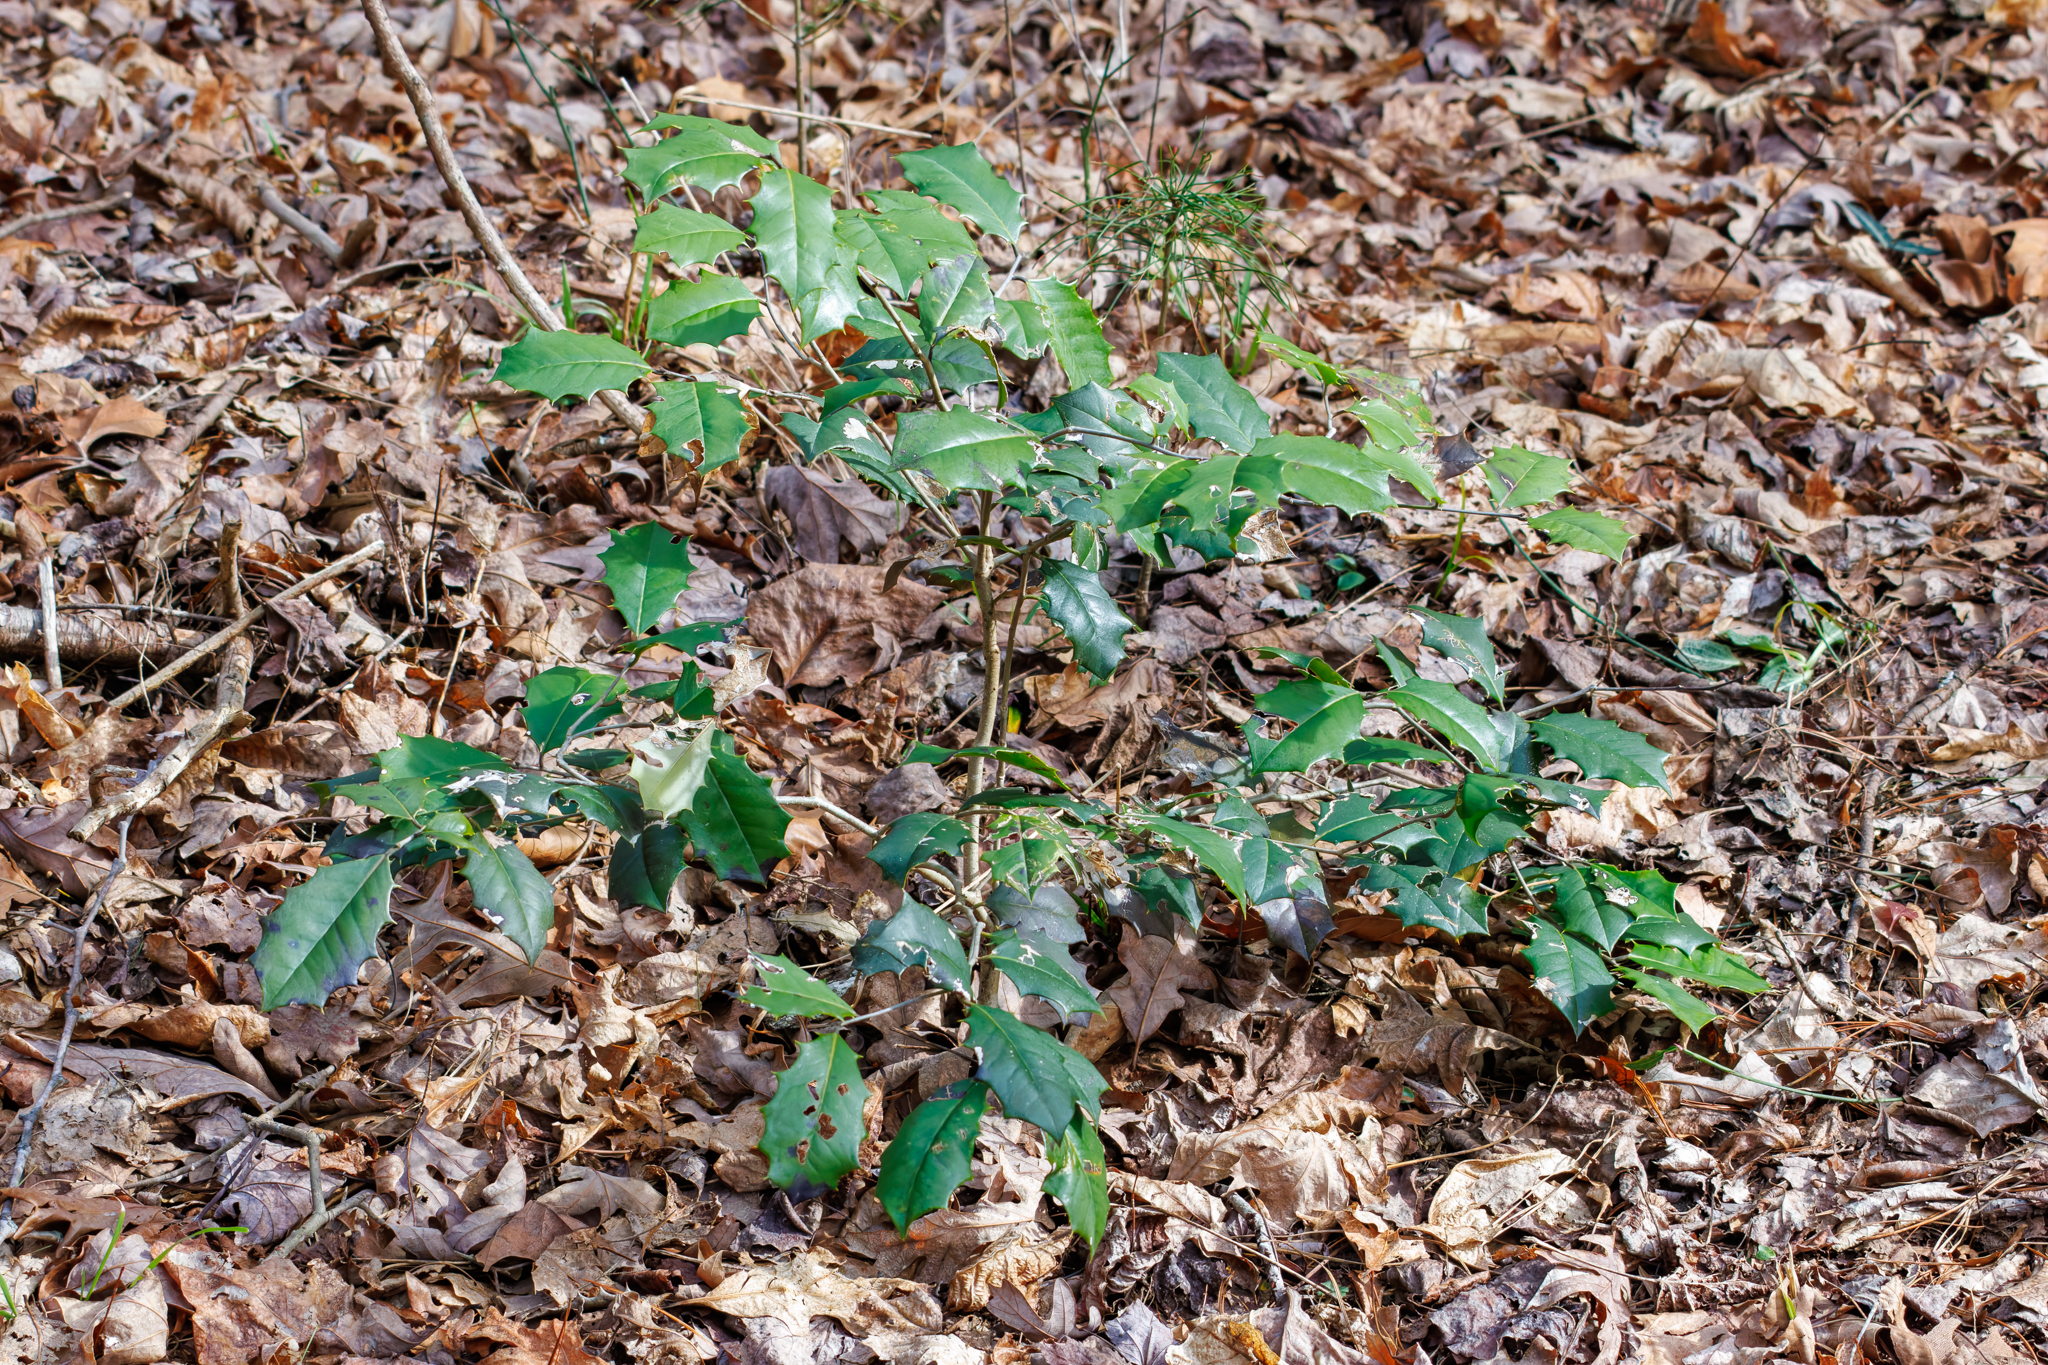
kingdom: Plantae
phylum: Tracheophyta
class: Magnoliopsida
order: Aquifoliales
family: Aquifoliaceae
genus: Ilex
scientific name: Ilex opaca
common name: American holly
